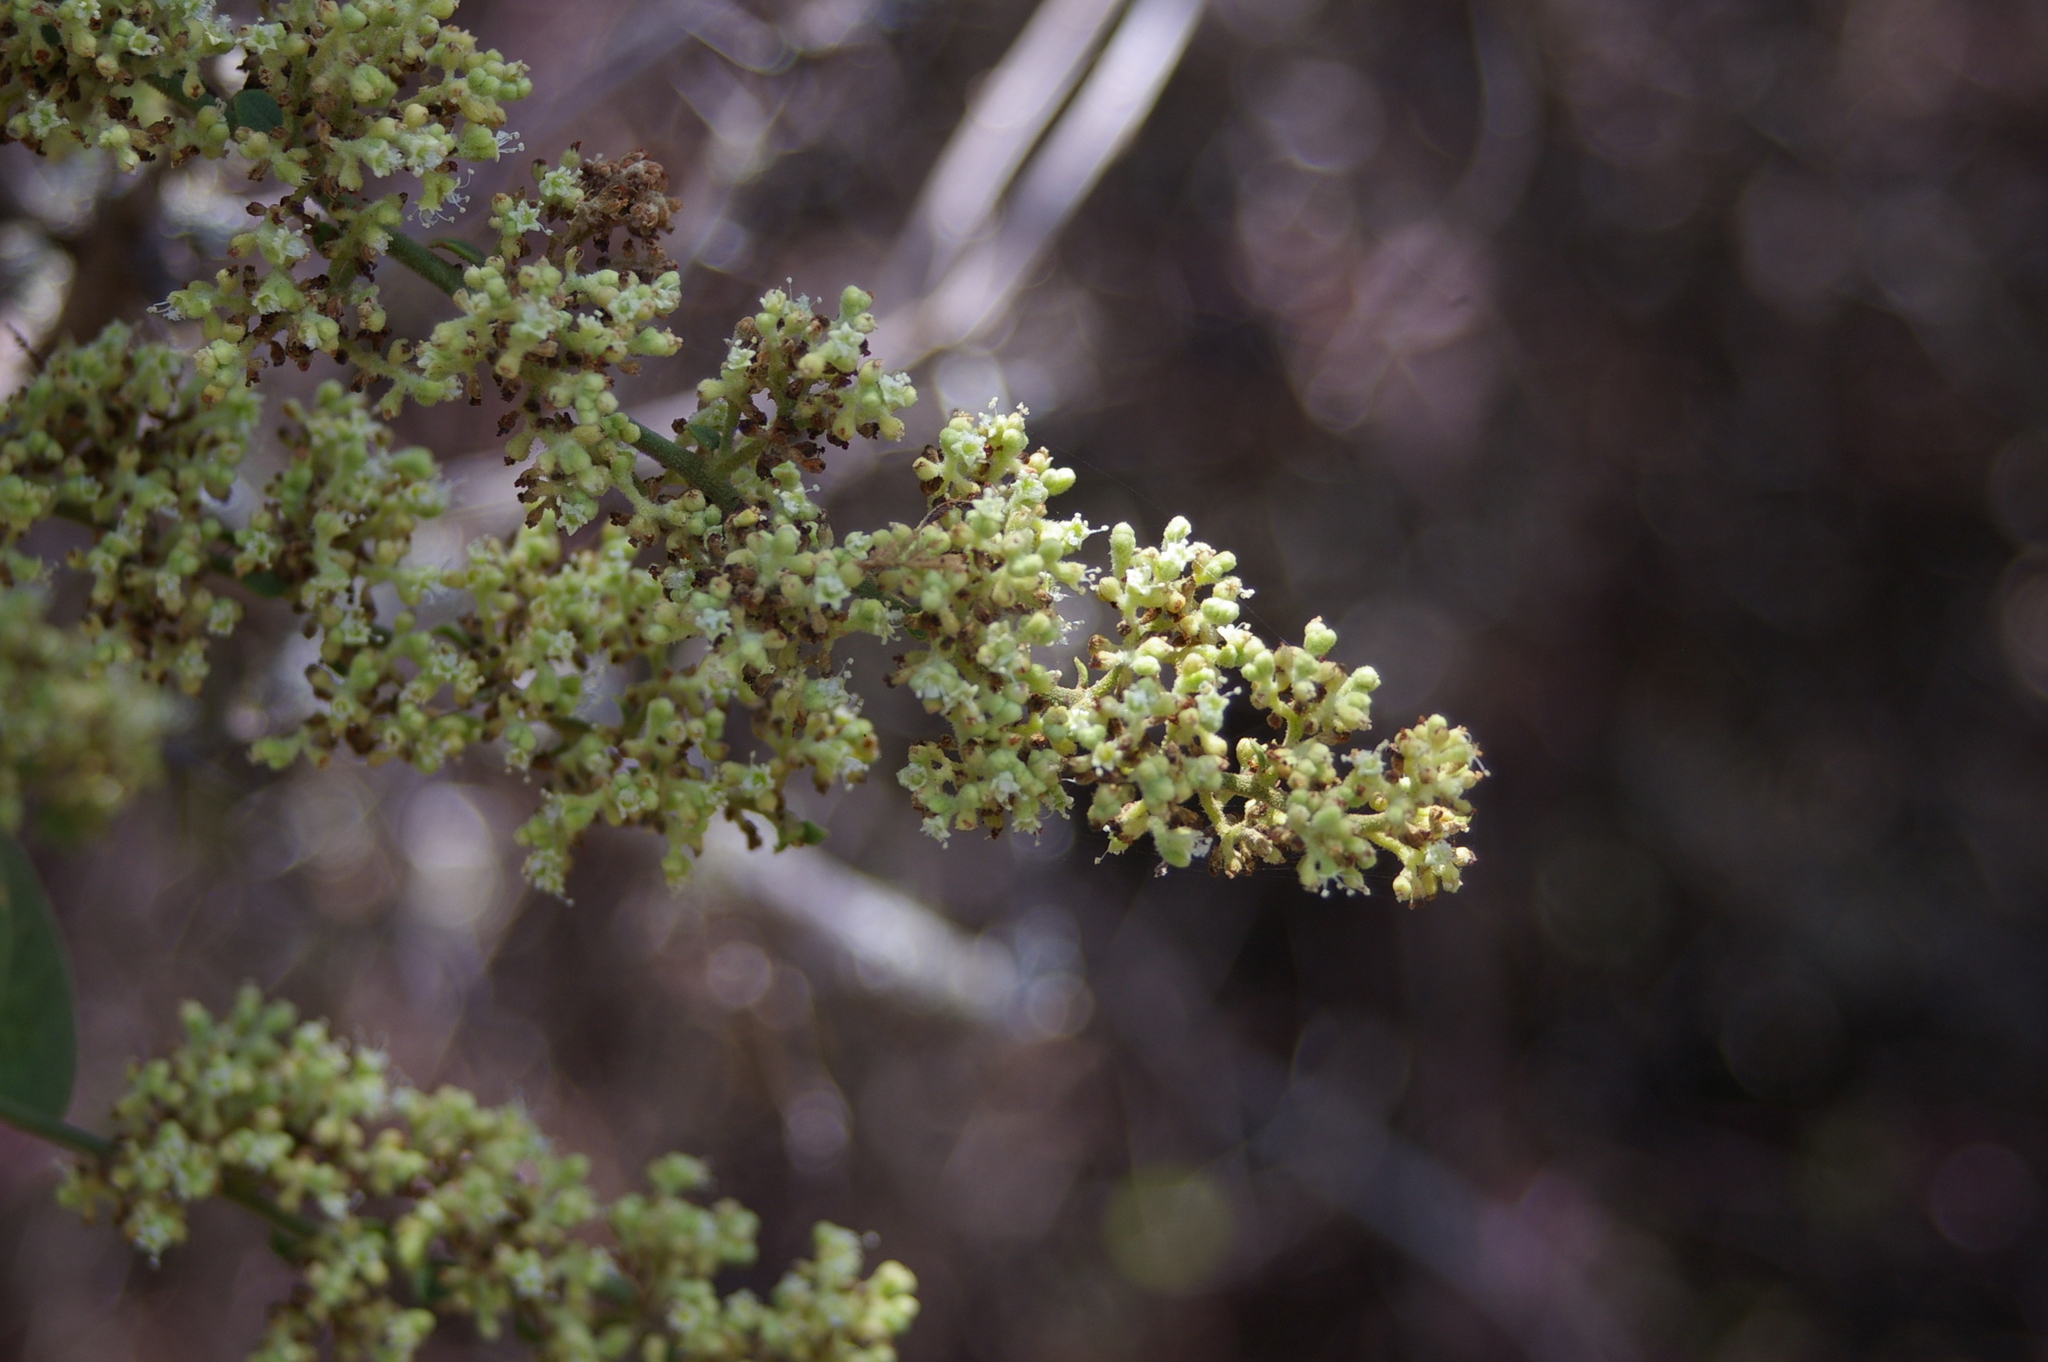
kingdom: Plantae
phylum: Tracheophyta
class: Magnoliopsida
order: Caryophyllales
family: Nyctaginaceae
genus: Cryptocarpus
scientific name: Cryptocarpus pyriformis
